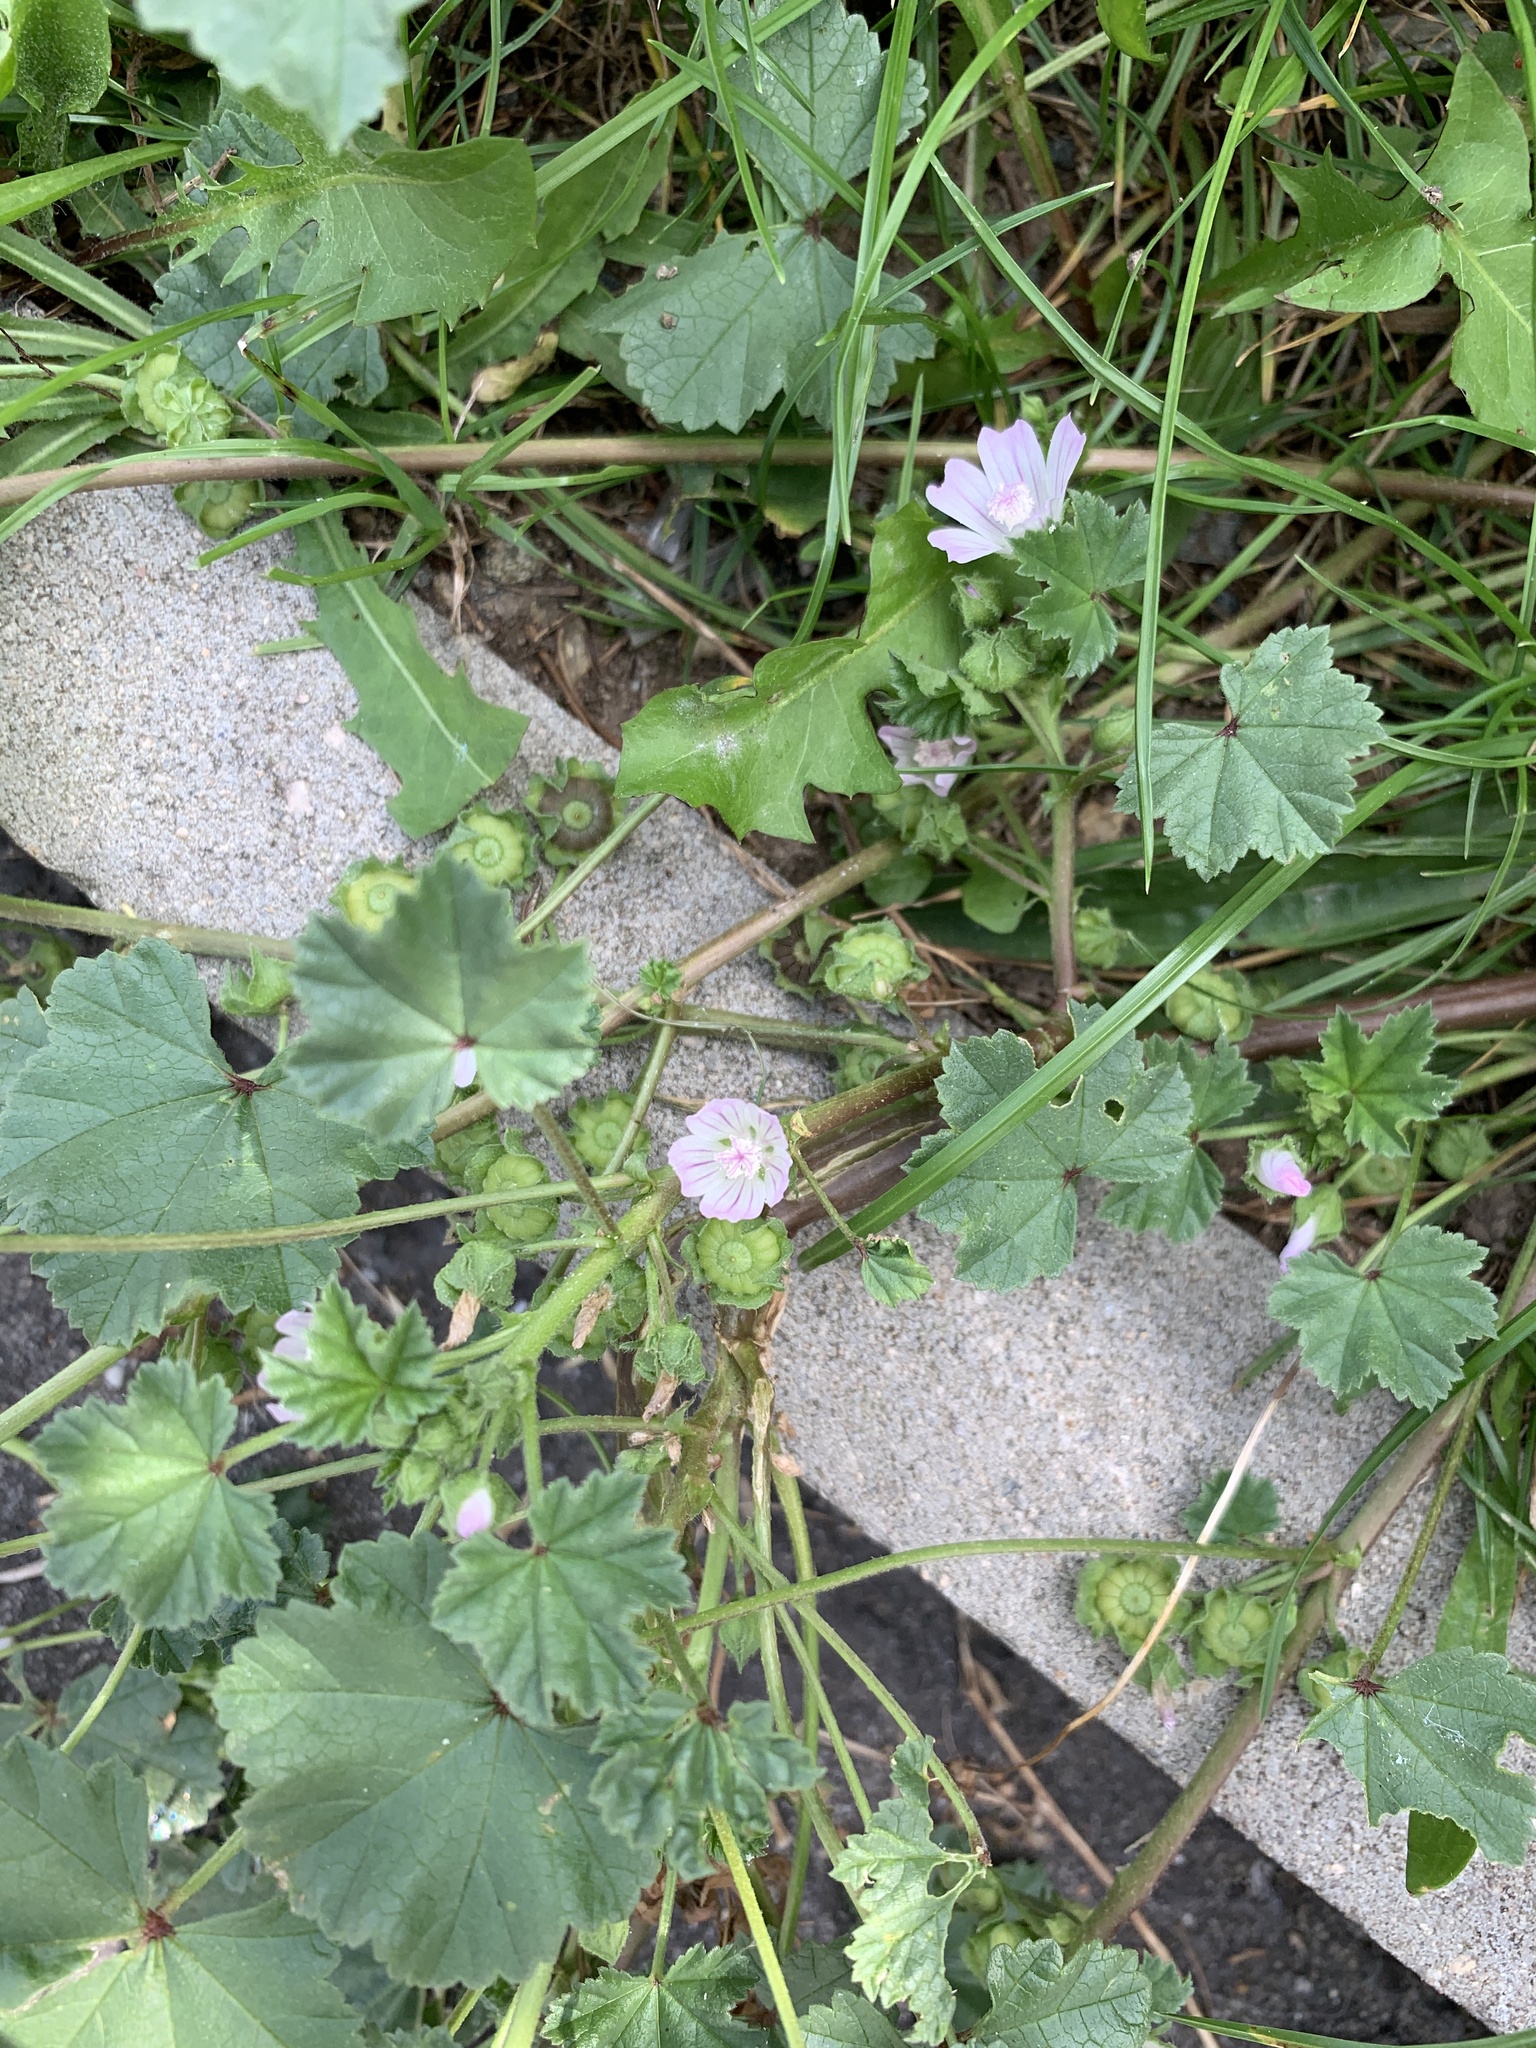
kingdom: Plantae
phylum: Tracheophyta
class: Magnoliopsida
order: Malvales
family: Malvaceae
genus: Malva
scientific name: Malva neglecta
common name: Common mallow
